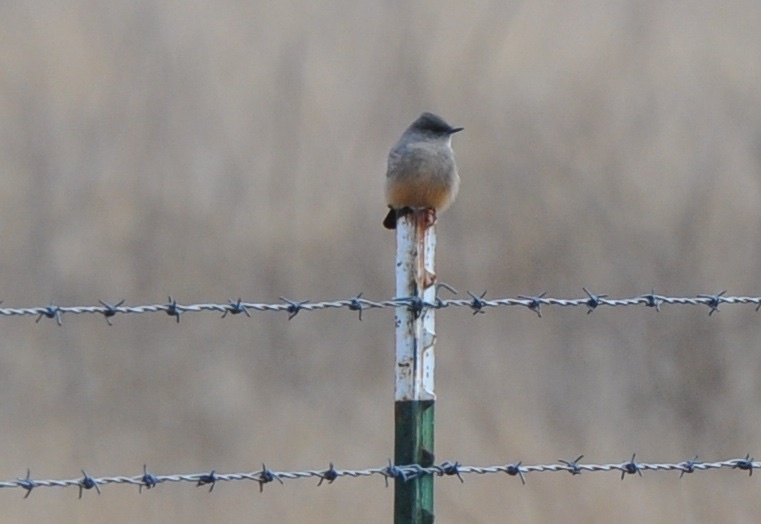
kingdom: Animalia
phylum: Chordata
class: Aves
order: Passeriformes
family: Tyrannidae
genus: Sayornis
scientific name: Sayornis saya
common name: Say's phoebe
